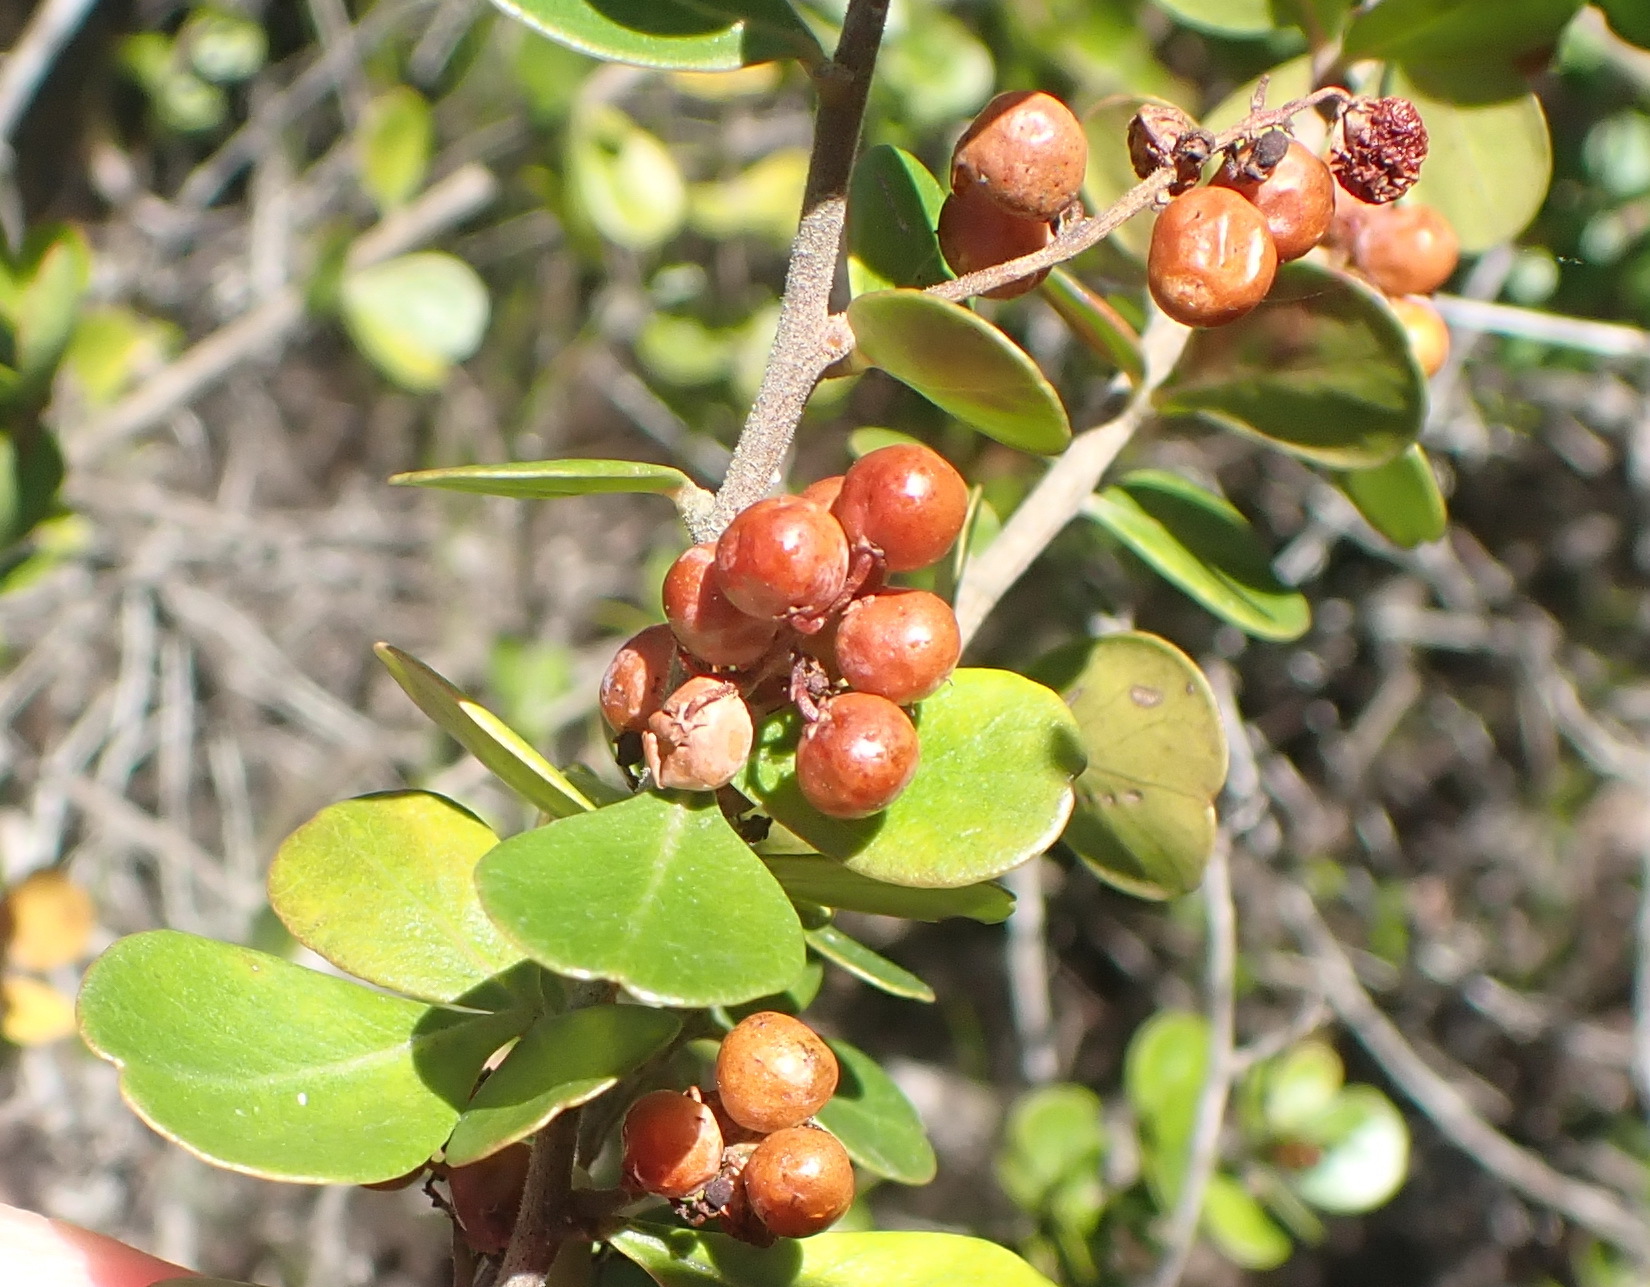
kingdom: Plantae
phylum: Tracheophyta
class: Magnoliopsida
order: Sapindales
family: Anacardiaceae
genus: Searsia
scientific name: Searsia lucida
